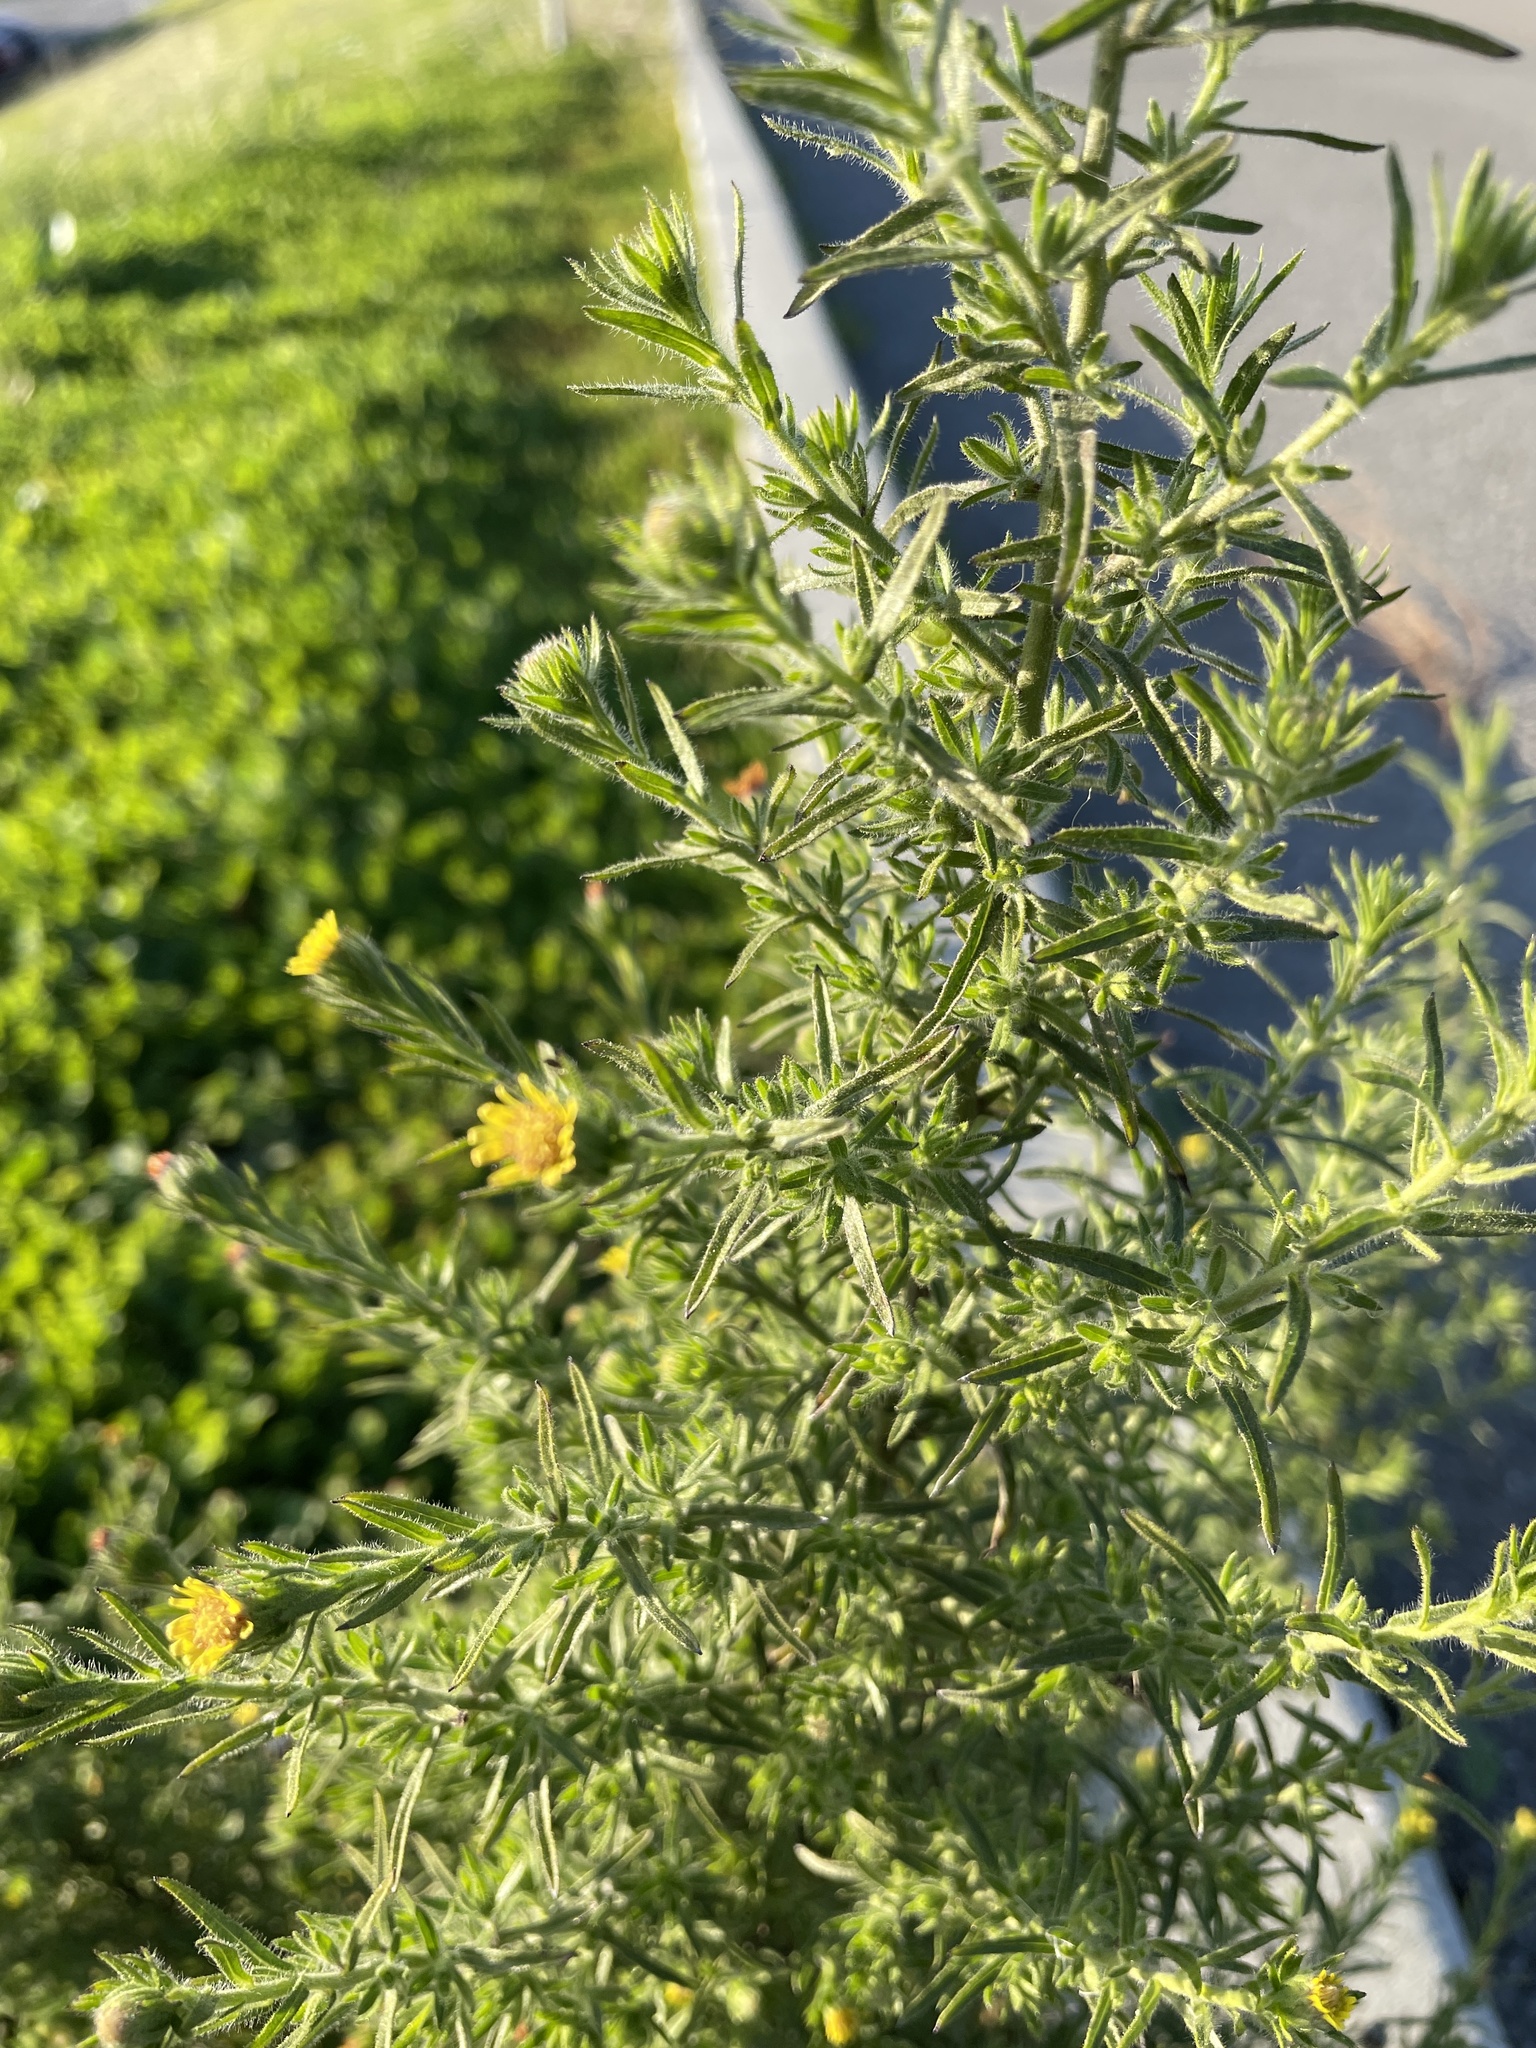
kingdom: Plantae
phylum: Tracheophyta
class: Magnoliopsida
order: Asterales
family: Asteraceae
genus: Dittrichia
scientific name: Dittrichia graveolens
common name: Stinking fleabane
